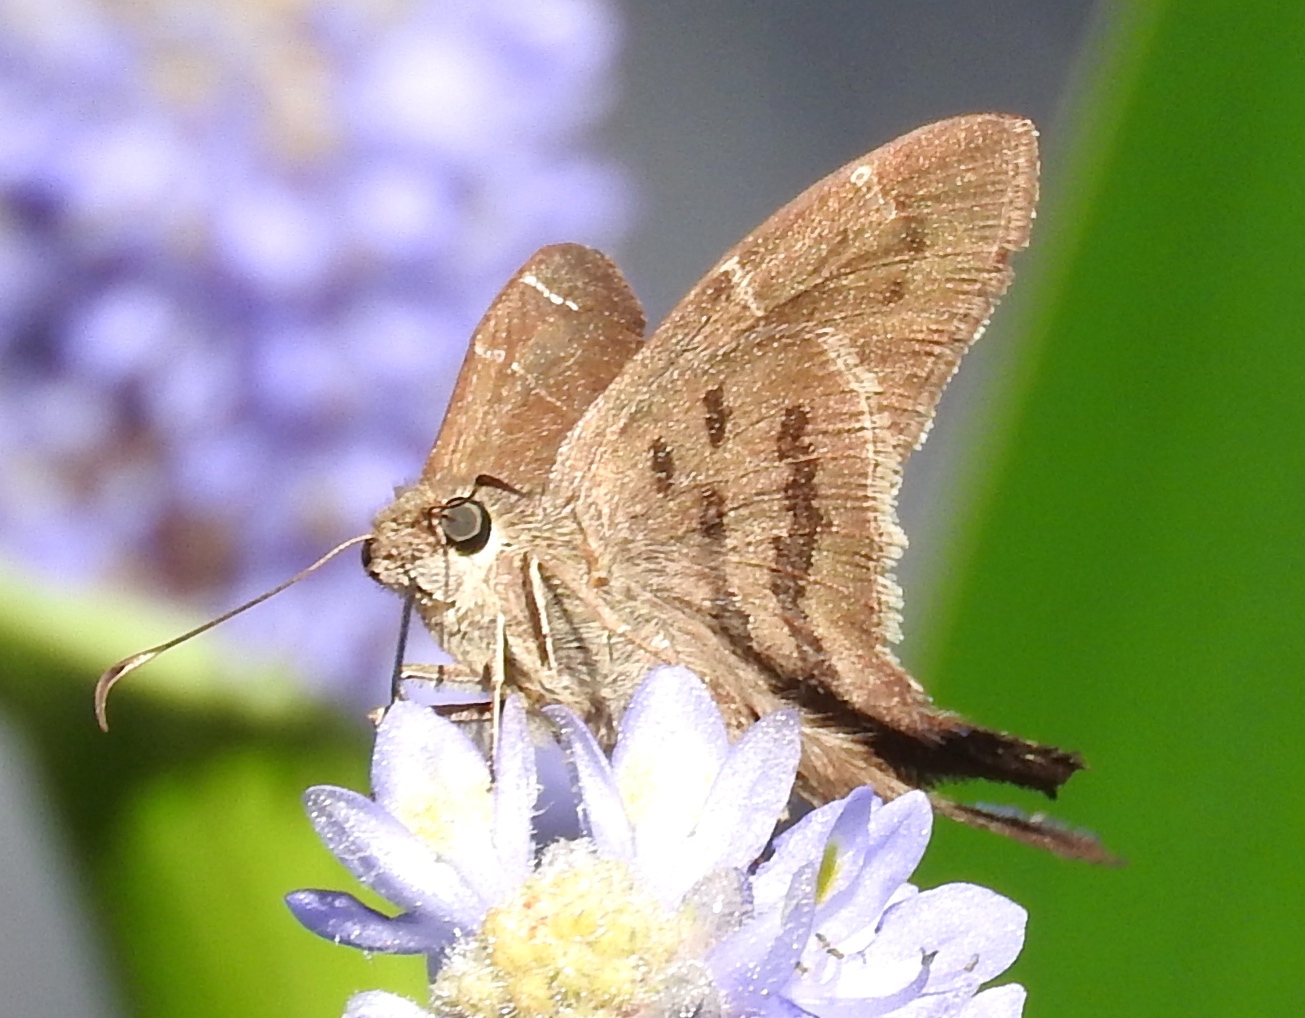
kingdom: Animalia
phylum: Arthropoda
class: Insecta
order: Lepidoptera
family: Hesperiidae
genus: Urbanus
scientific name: Urbanus procne
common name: Brown longtail
